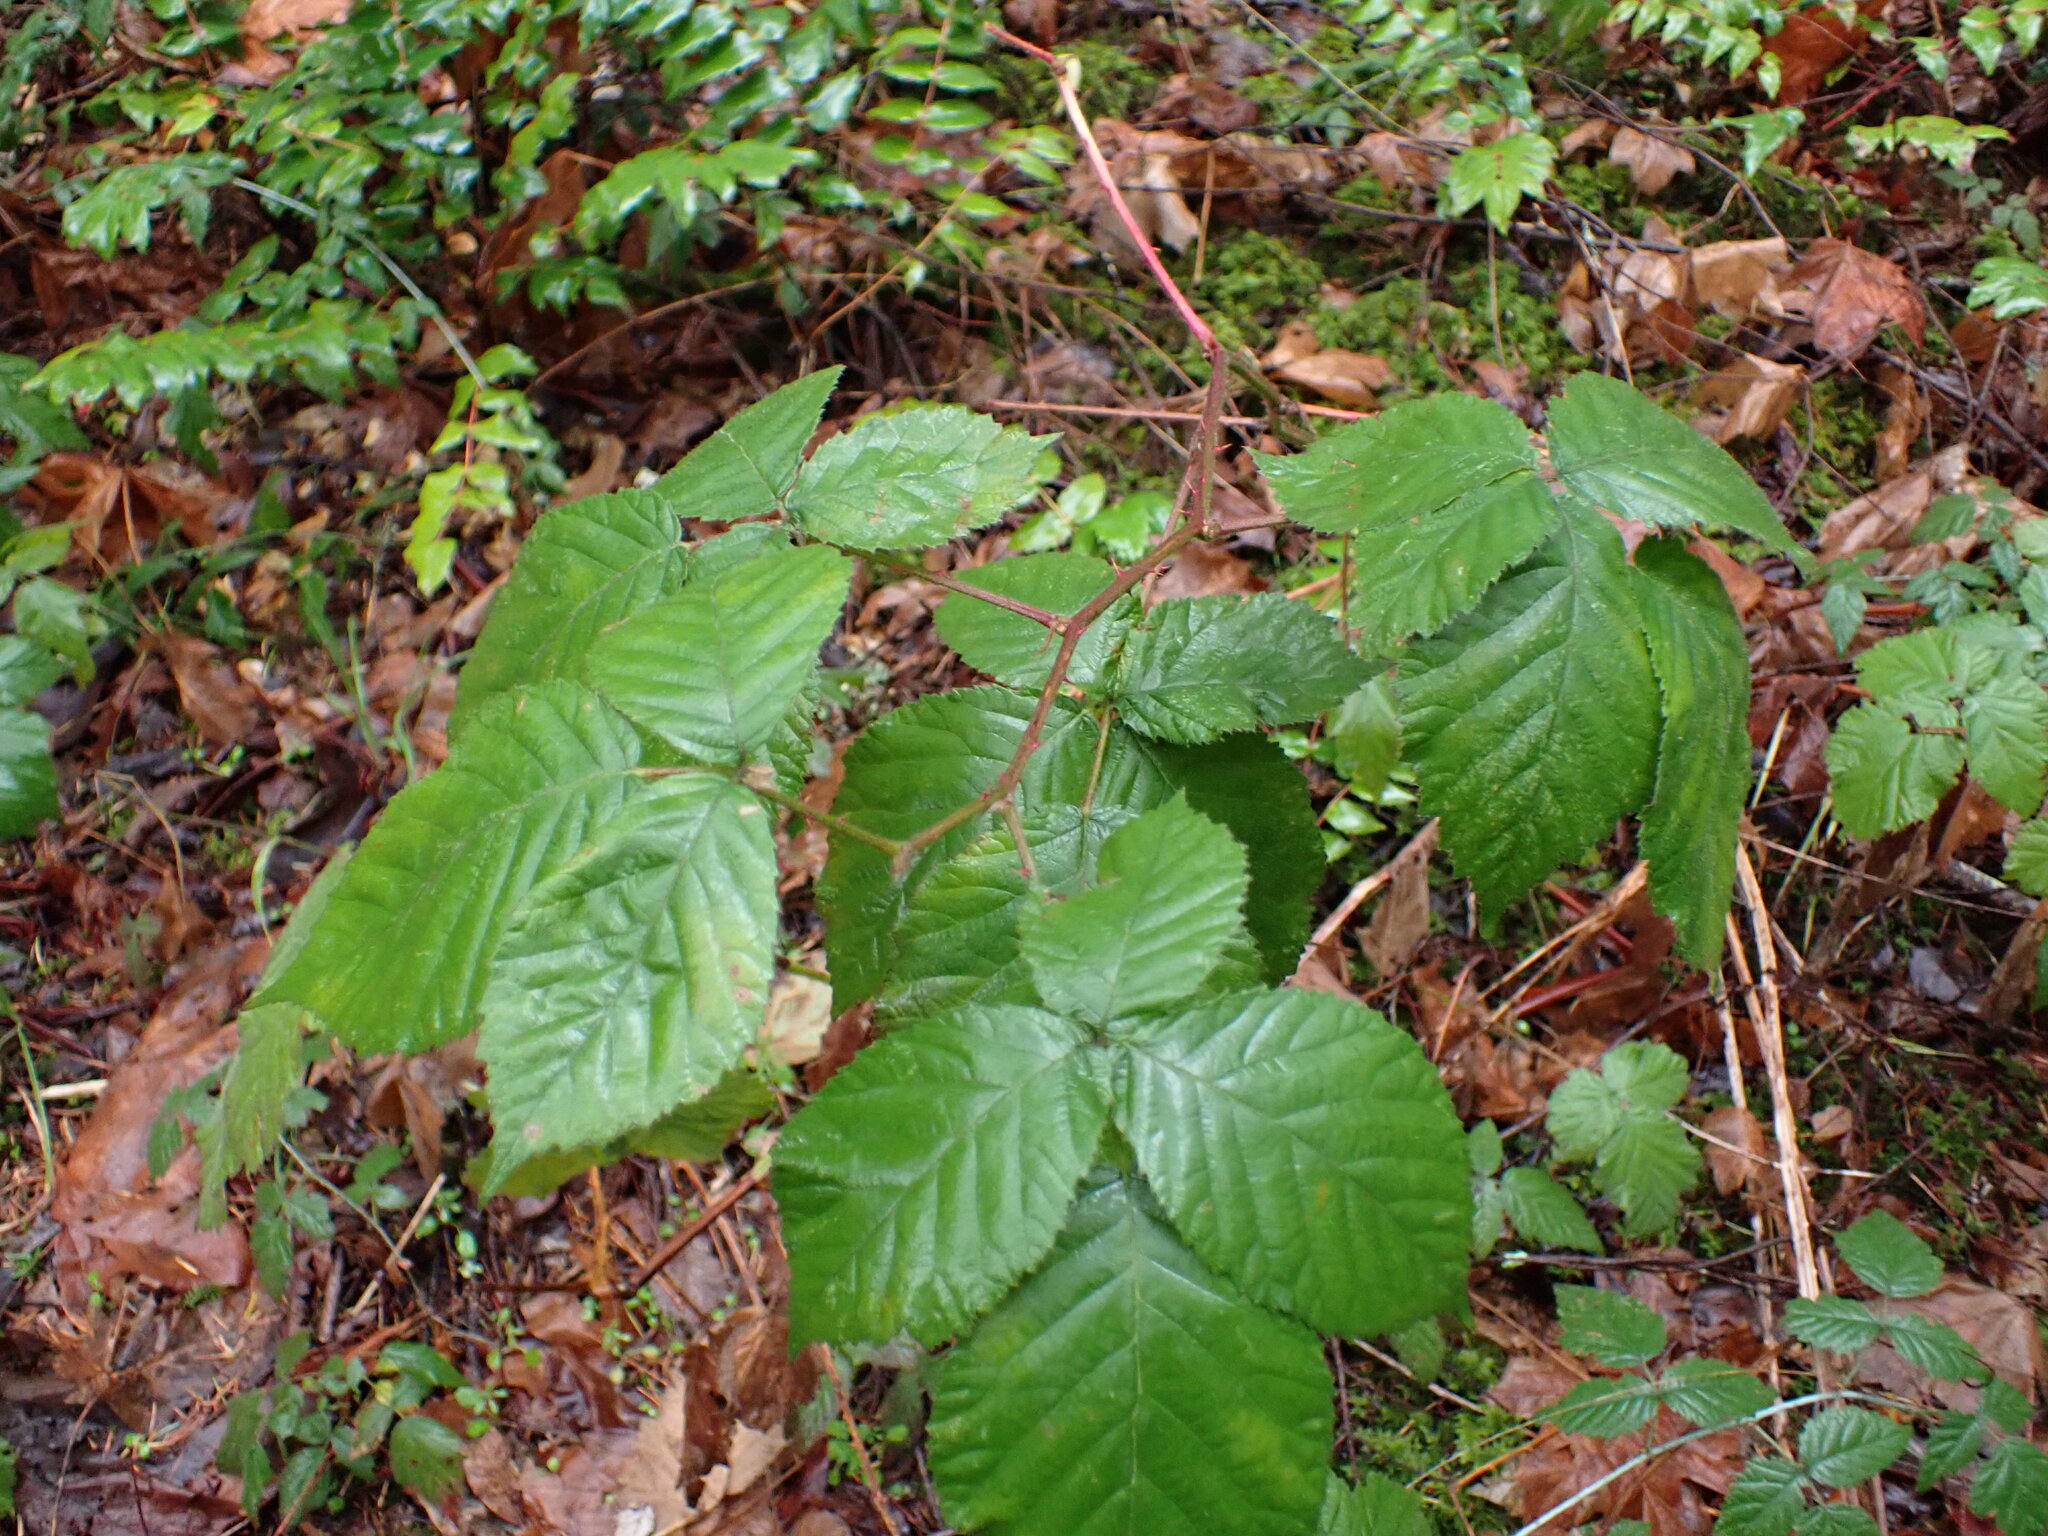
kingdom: Plantae
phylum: Tracheophyta
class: Magnoliopsida
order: Rosales
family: Rosaceae
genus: Rubus
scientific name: Rubus bifrons
